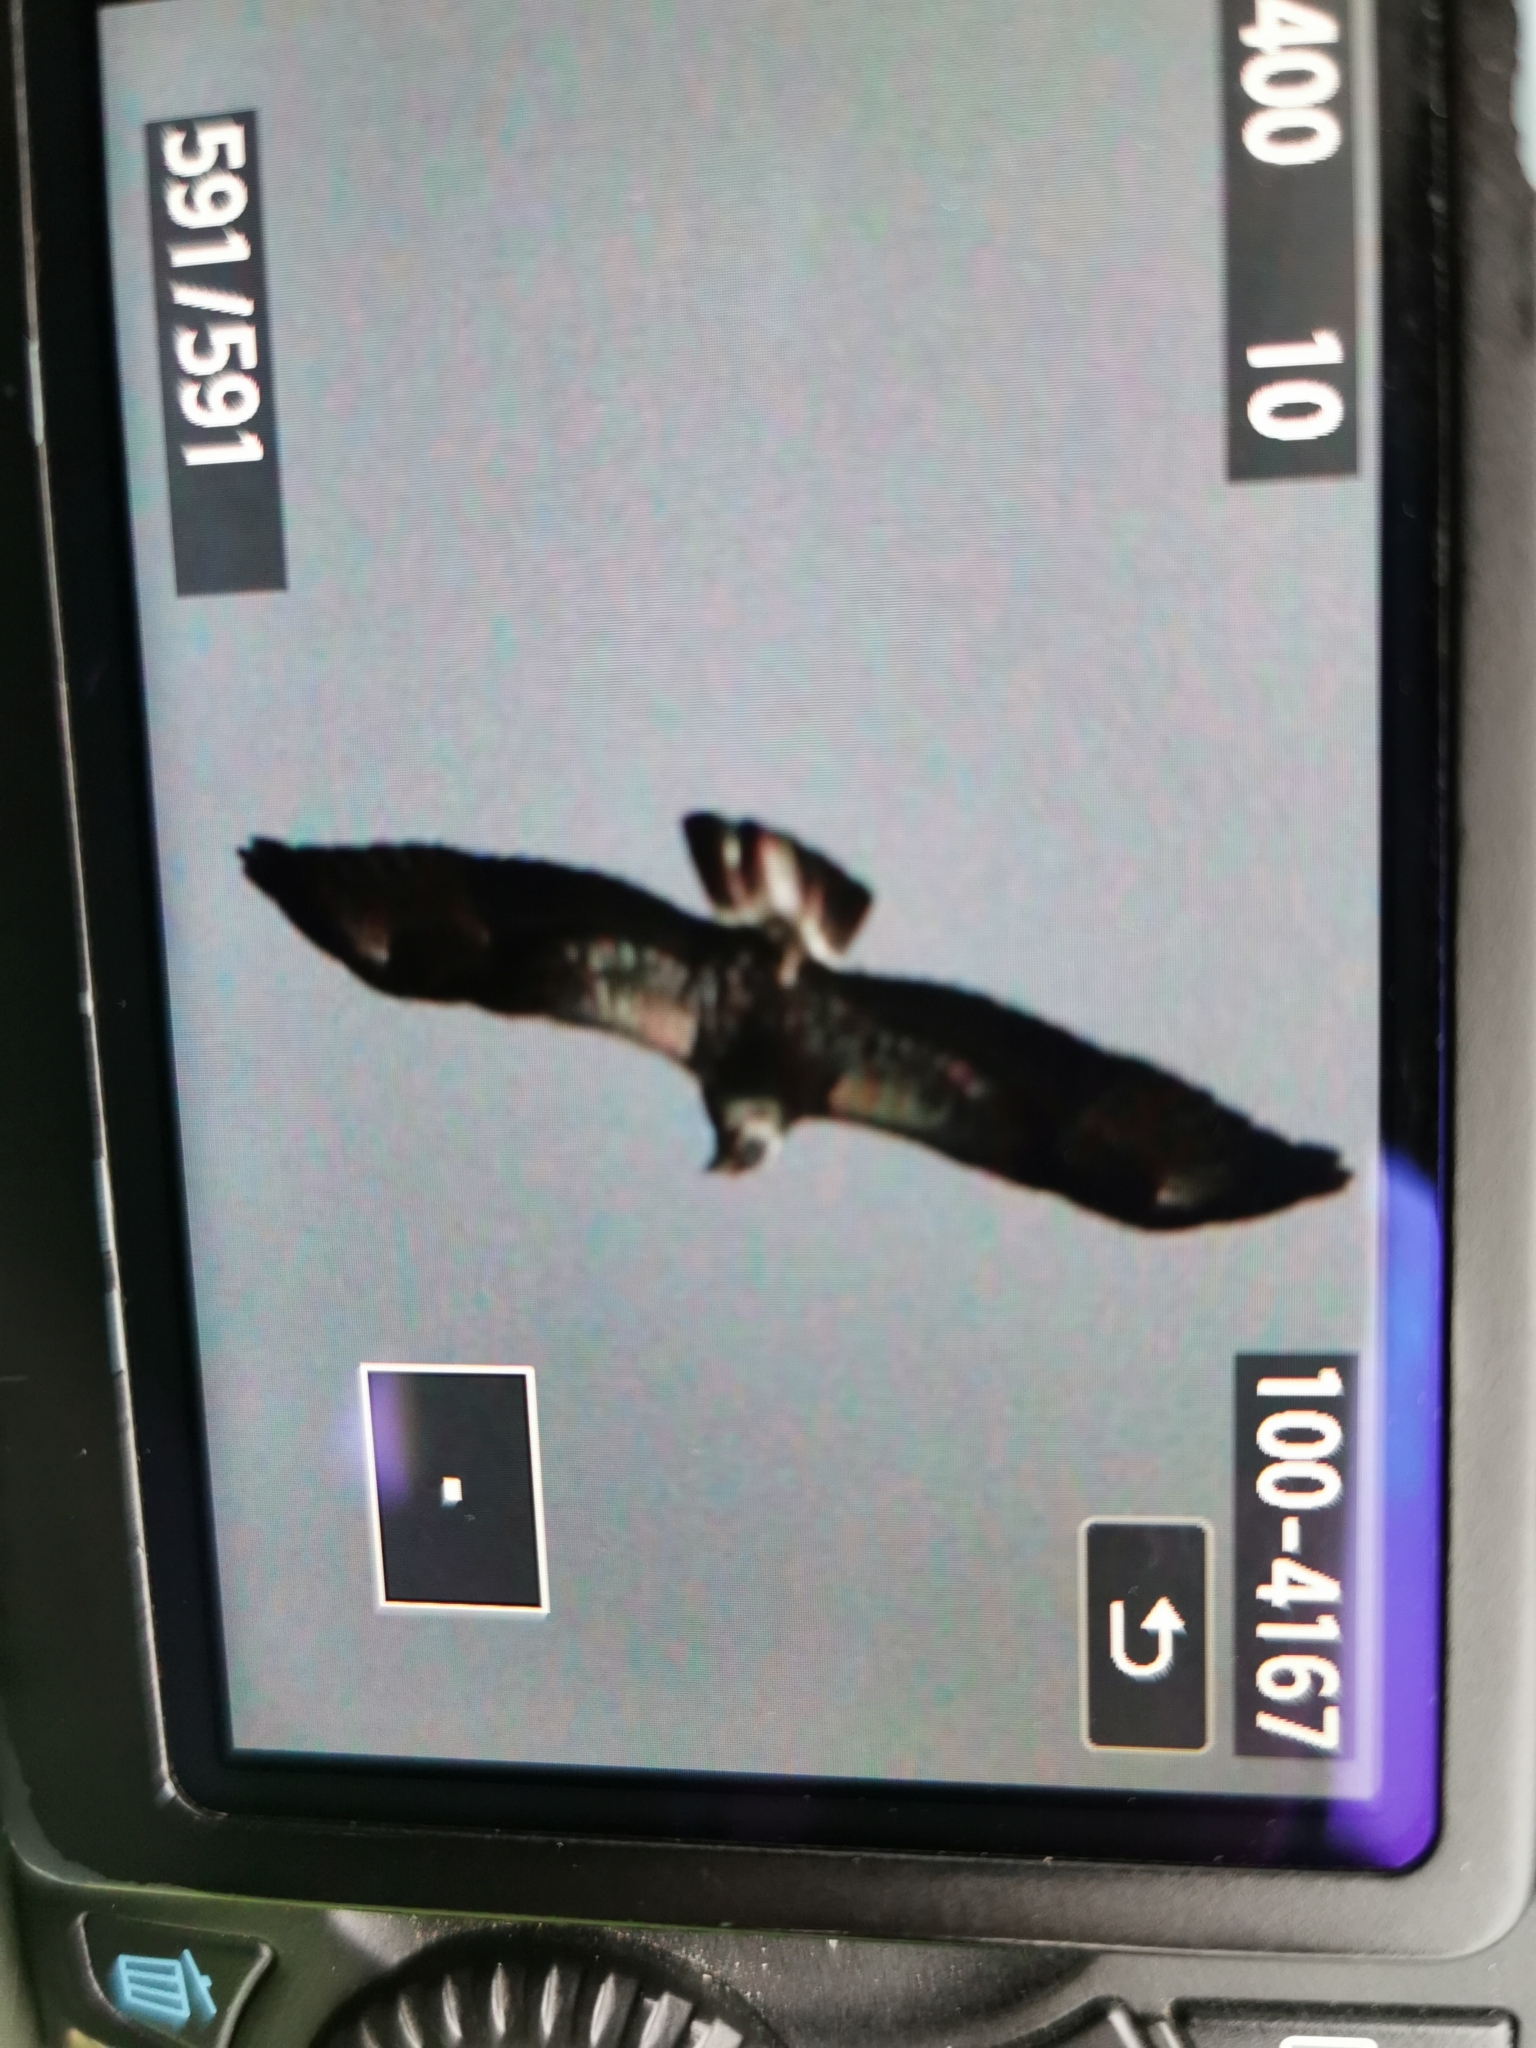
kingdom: Animalia
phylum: Chordata
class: Aves
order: Accipitriformes
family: Accipitridae
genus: Buteo
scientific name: Buteo buteo
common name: Common buzzard
